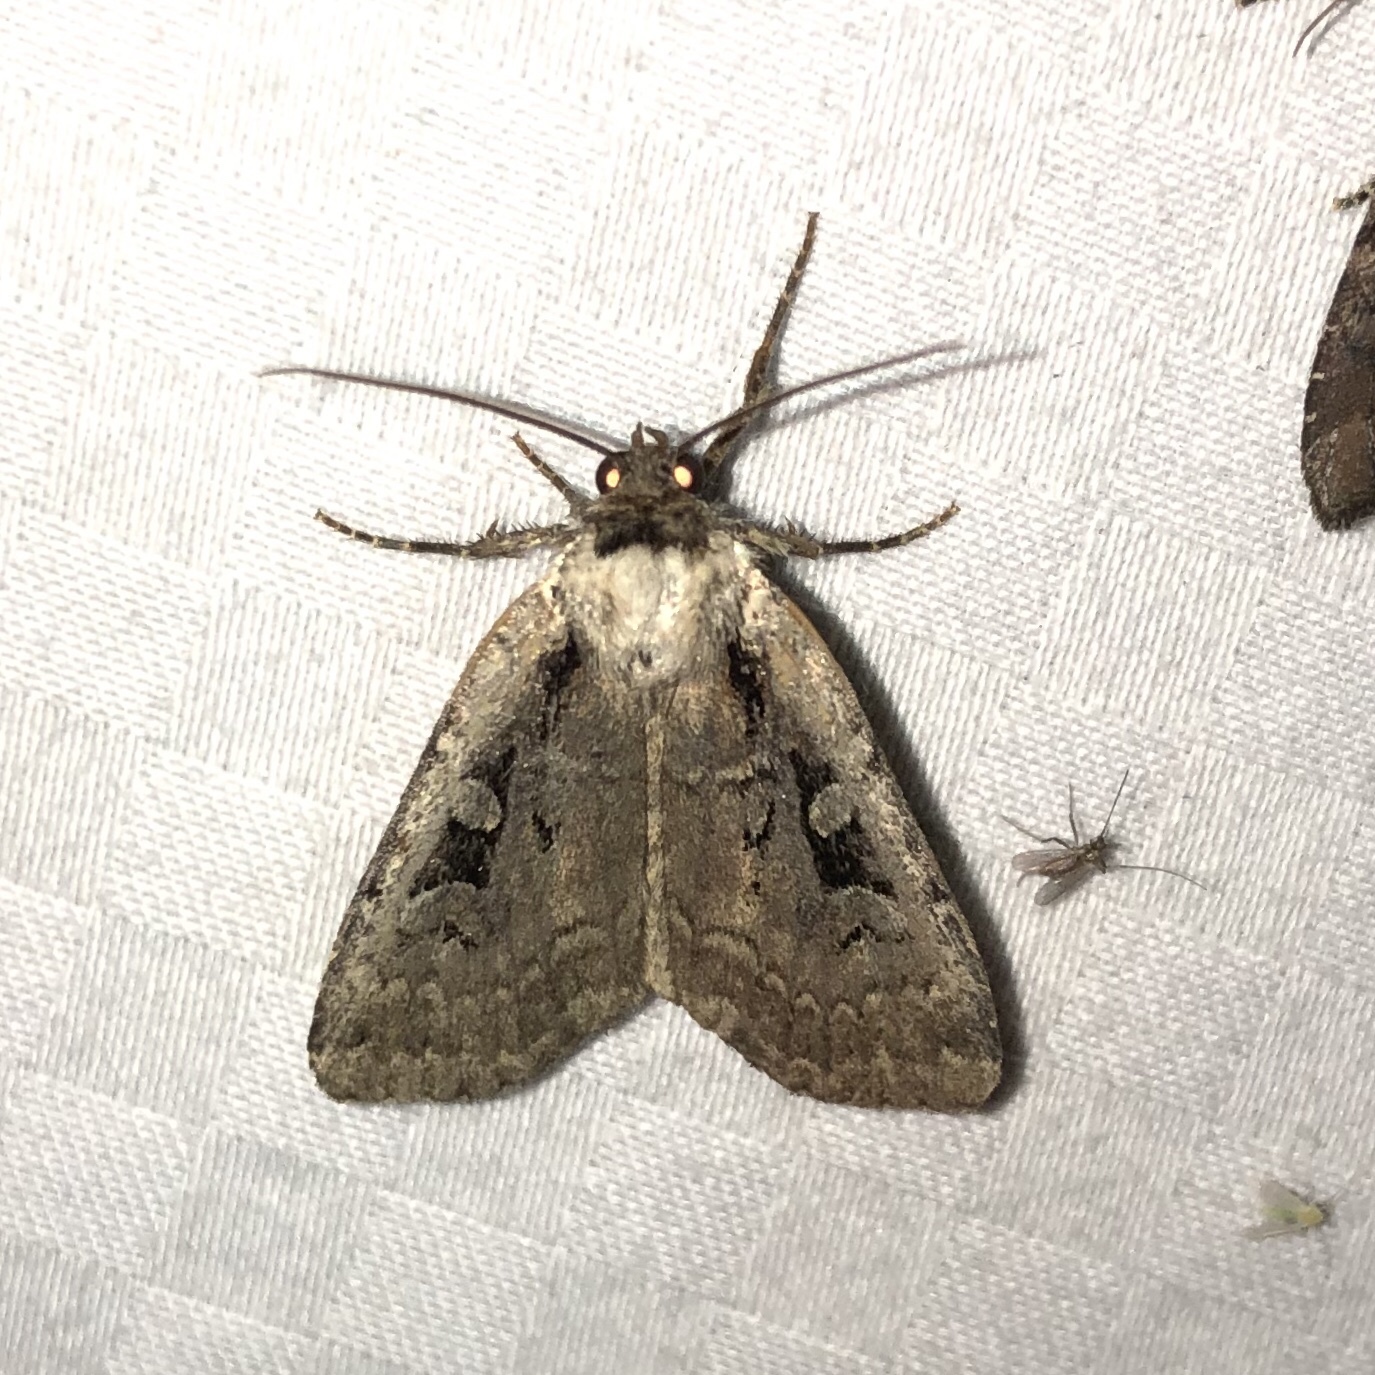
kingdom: Animalia
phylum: Arthropoda
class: Insecta
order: Lepidoptera
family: Noctuidae
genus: Eueretagrotis
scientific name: Eueretagrotis perattentus
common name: Two-spot dart moth
